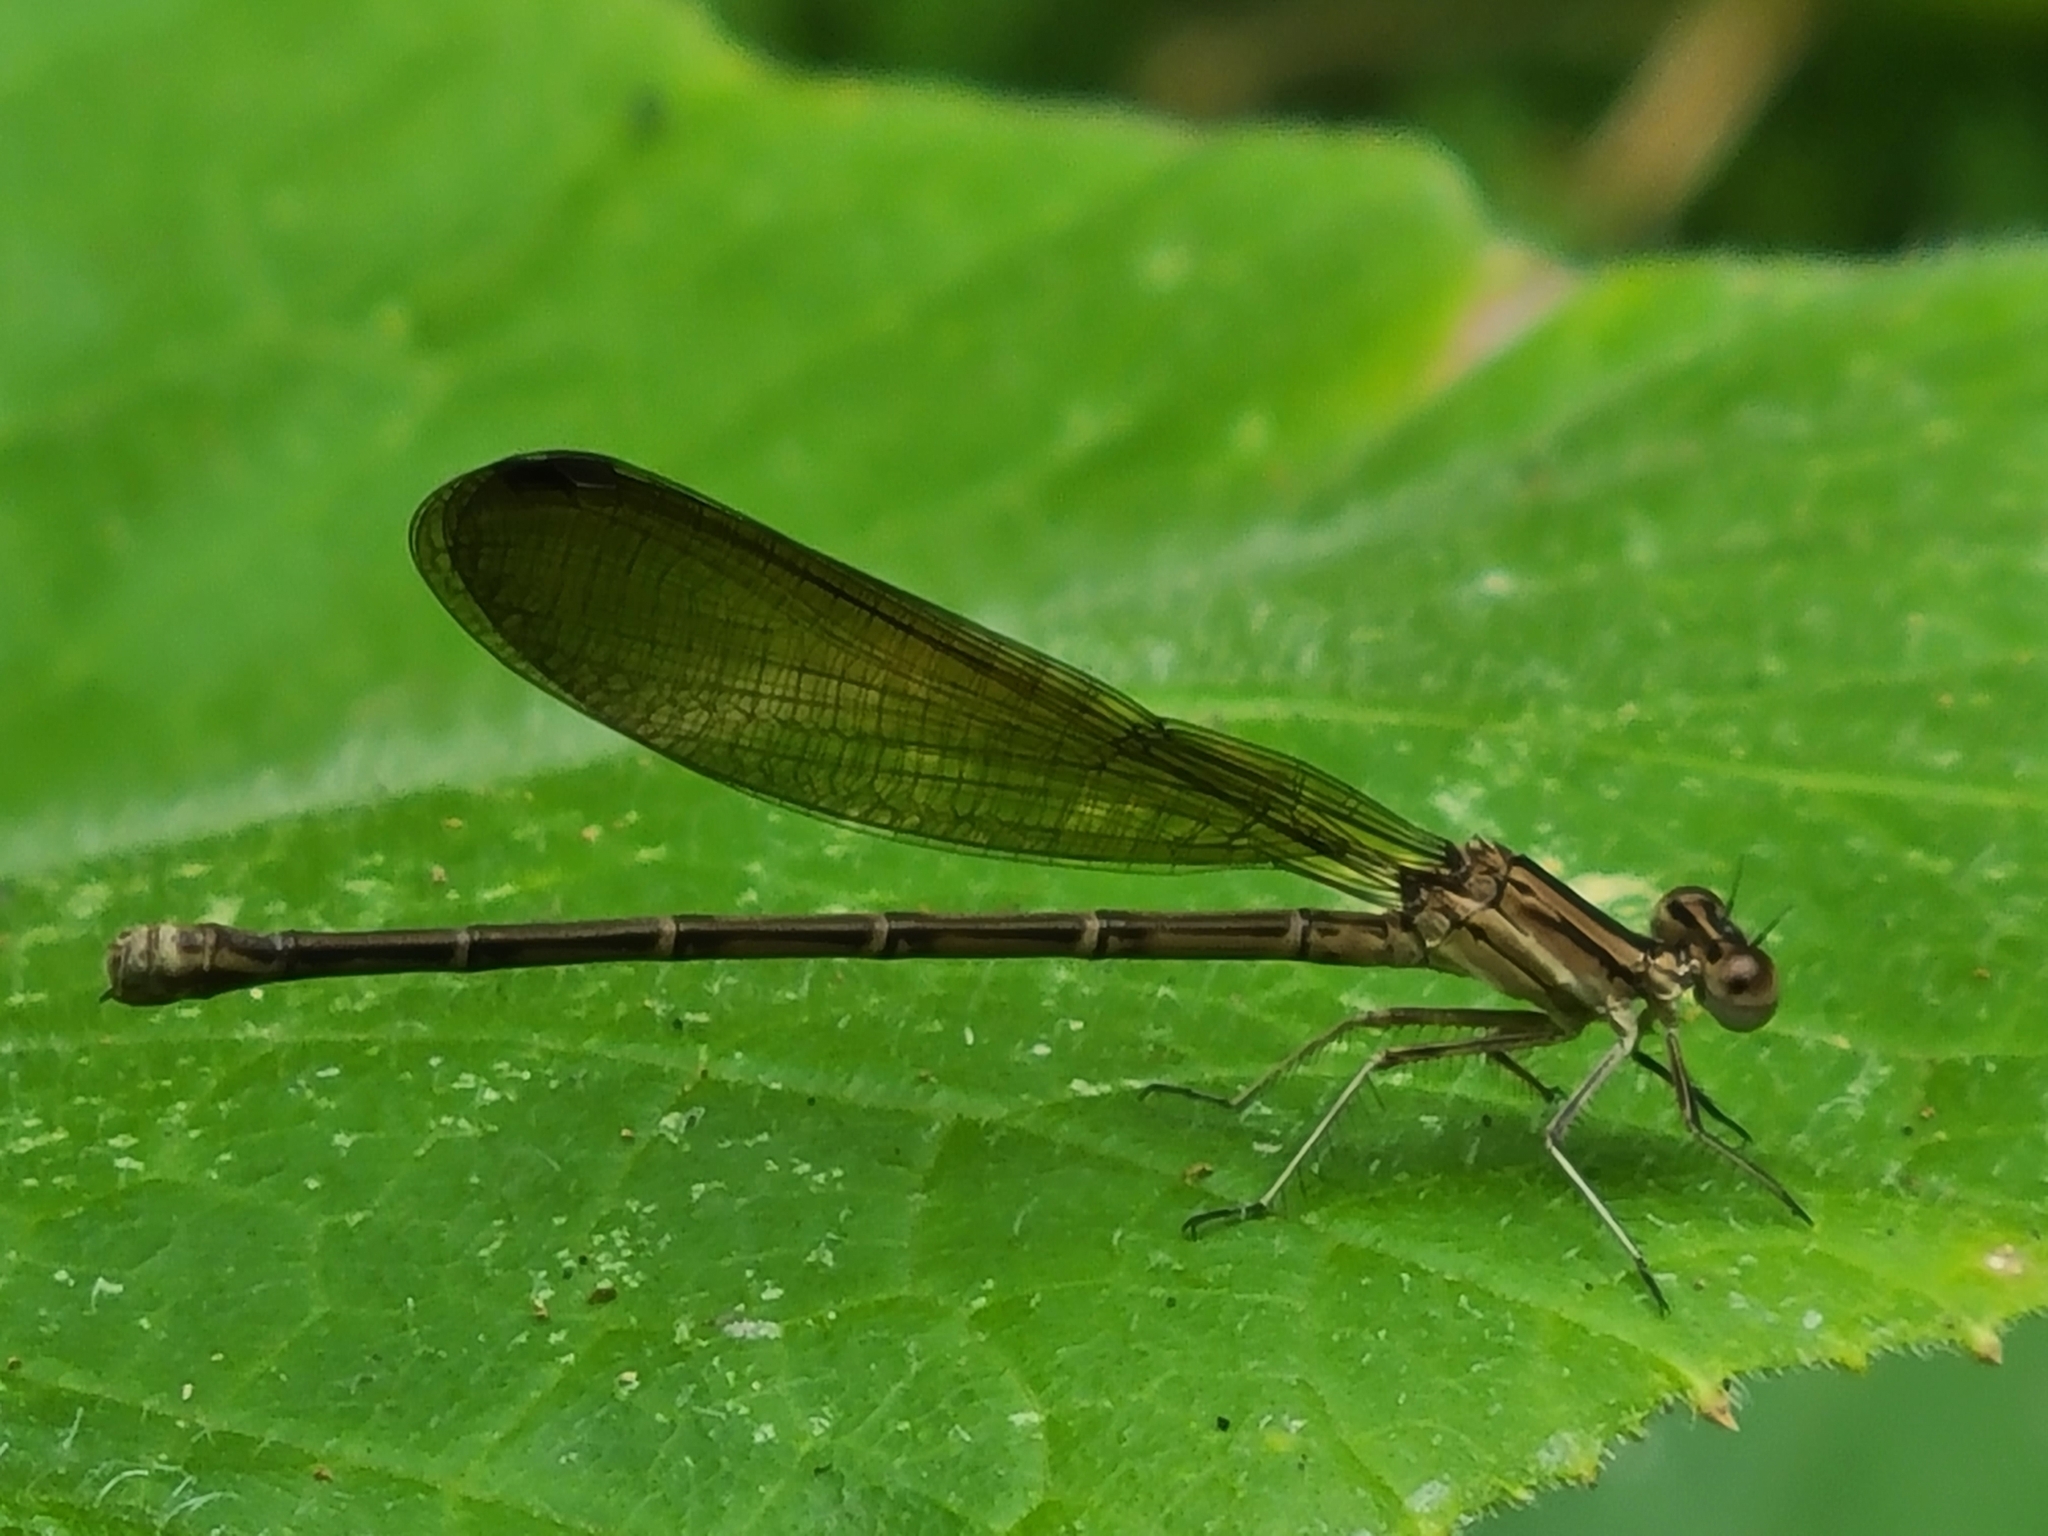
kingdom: Animalia
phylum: Arthropoda
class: Insecta
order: Odonata
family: Coenagrionidae
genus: Argia
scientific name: Argia fumipennis
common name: Variable dancer
